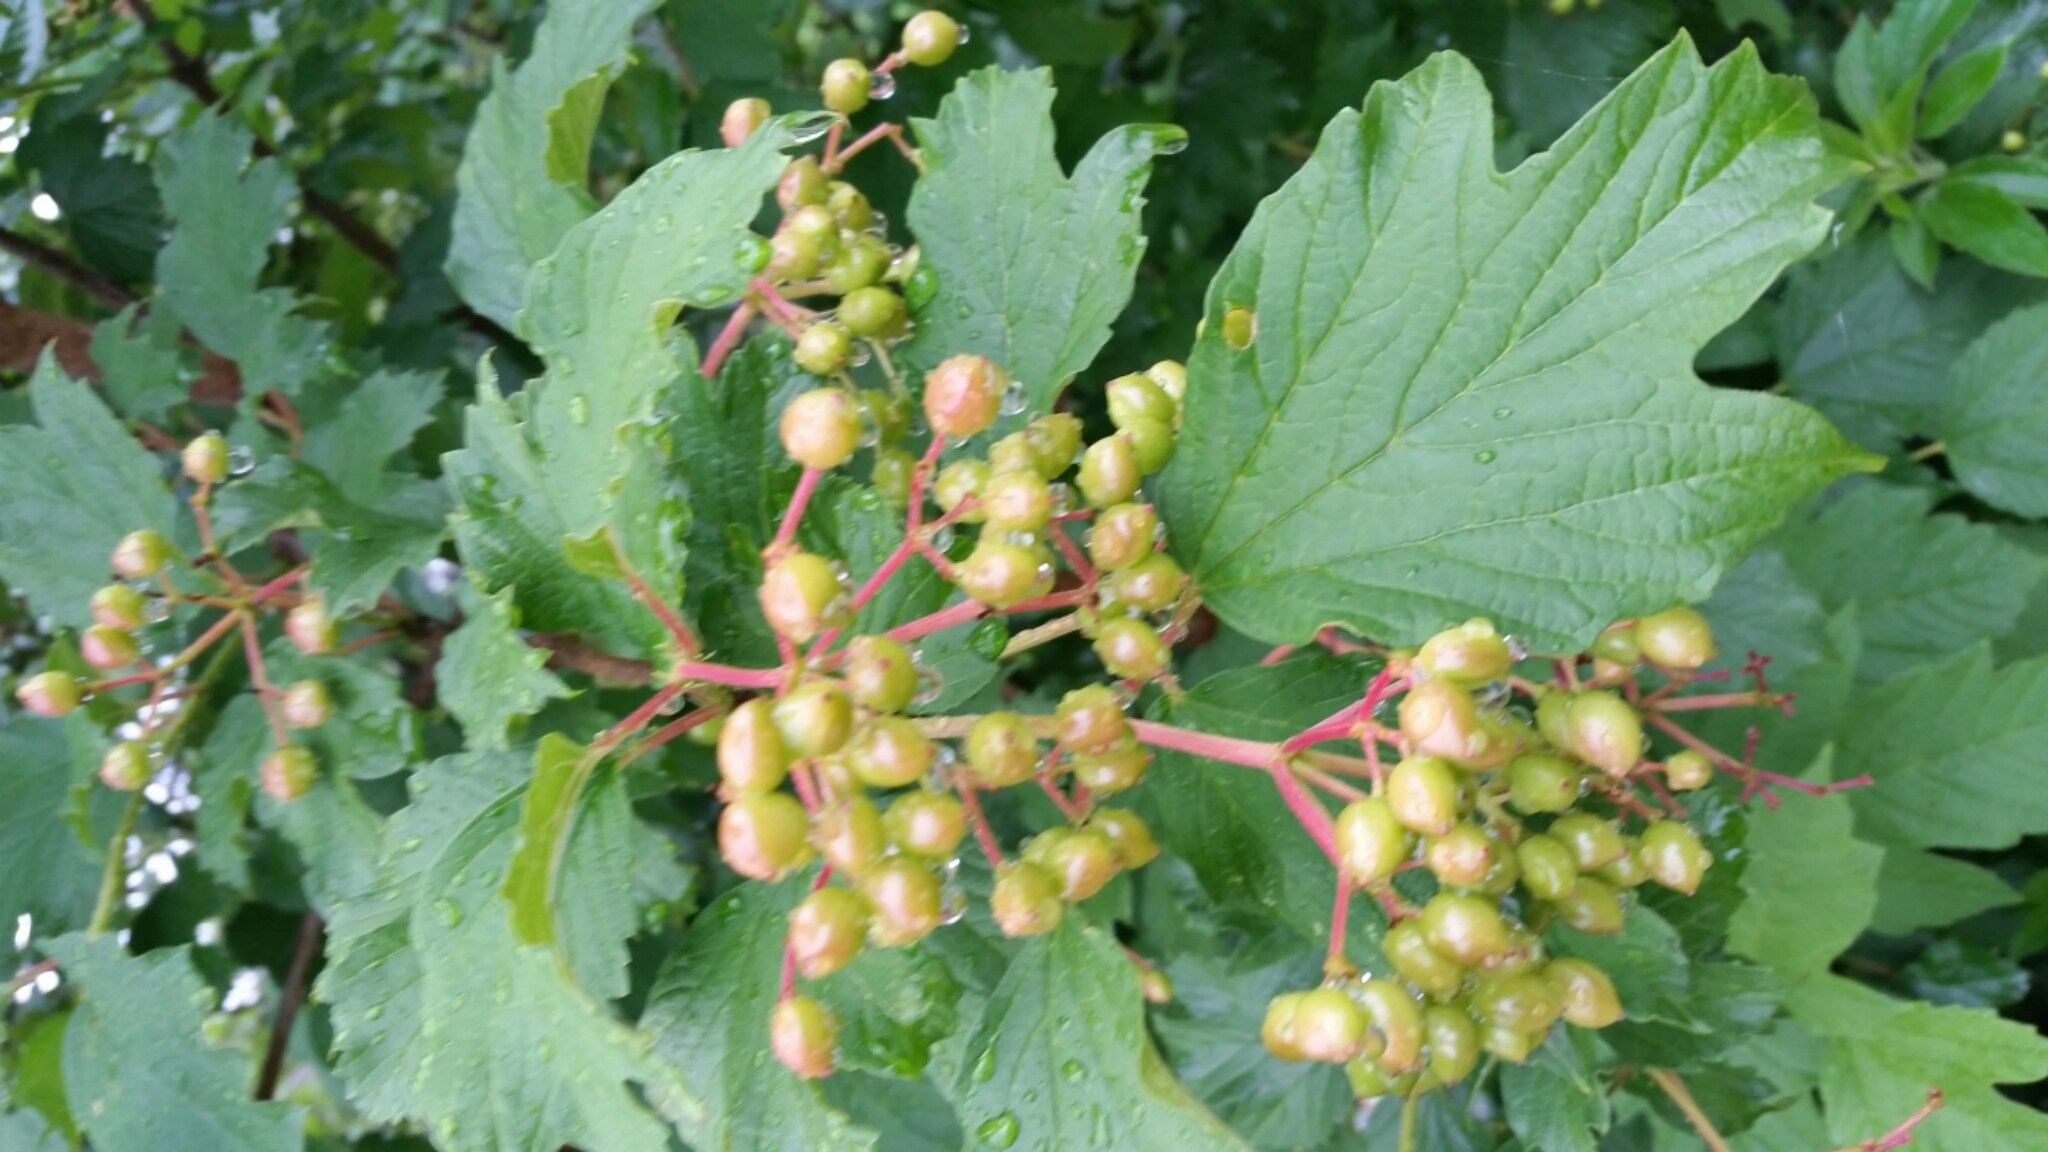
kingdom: Plantae
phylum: Tracheophyta
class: Magnoliopsida
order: Dipsacales
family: Viburnaceae
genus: Viburnum
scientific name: Viburnum opulus
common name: Guelder-rose
